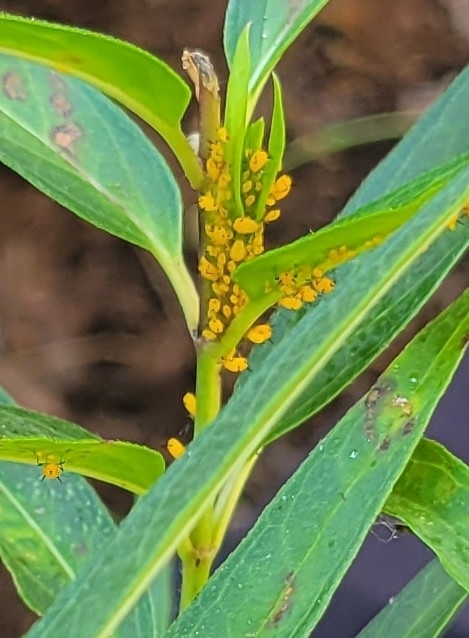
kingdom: Animalia
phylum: Arthropoda
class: Insecta
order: Hemiptera
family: Aphididae
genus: Aphis
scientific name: Aphis nerii
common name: Oleander aphid
